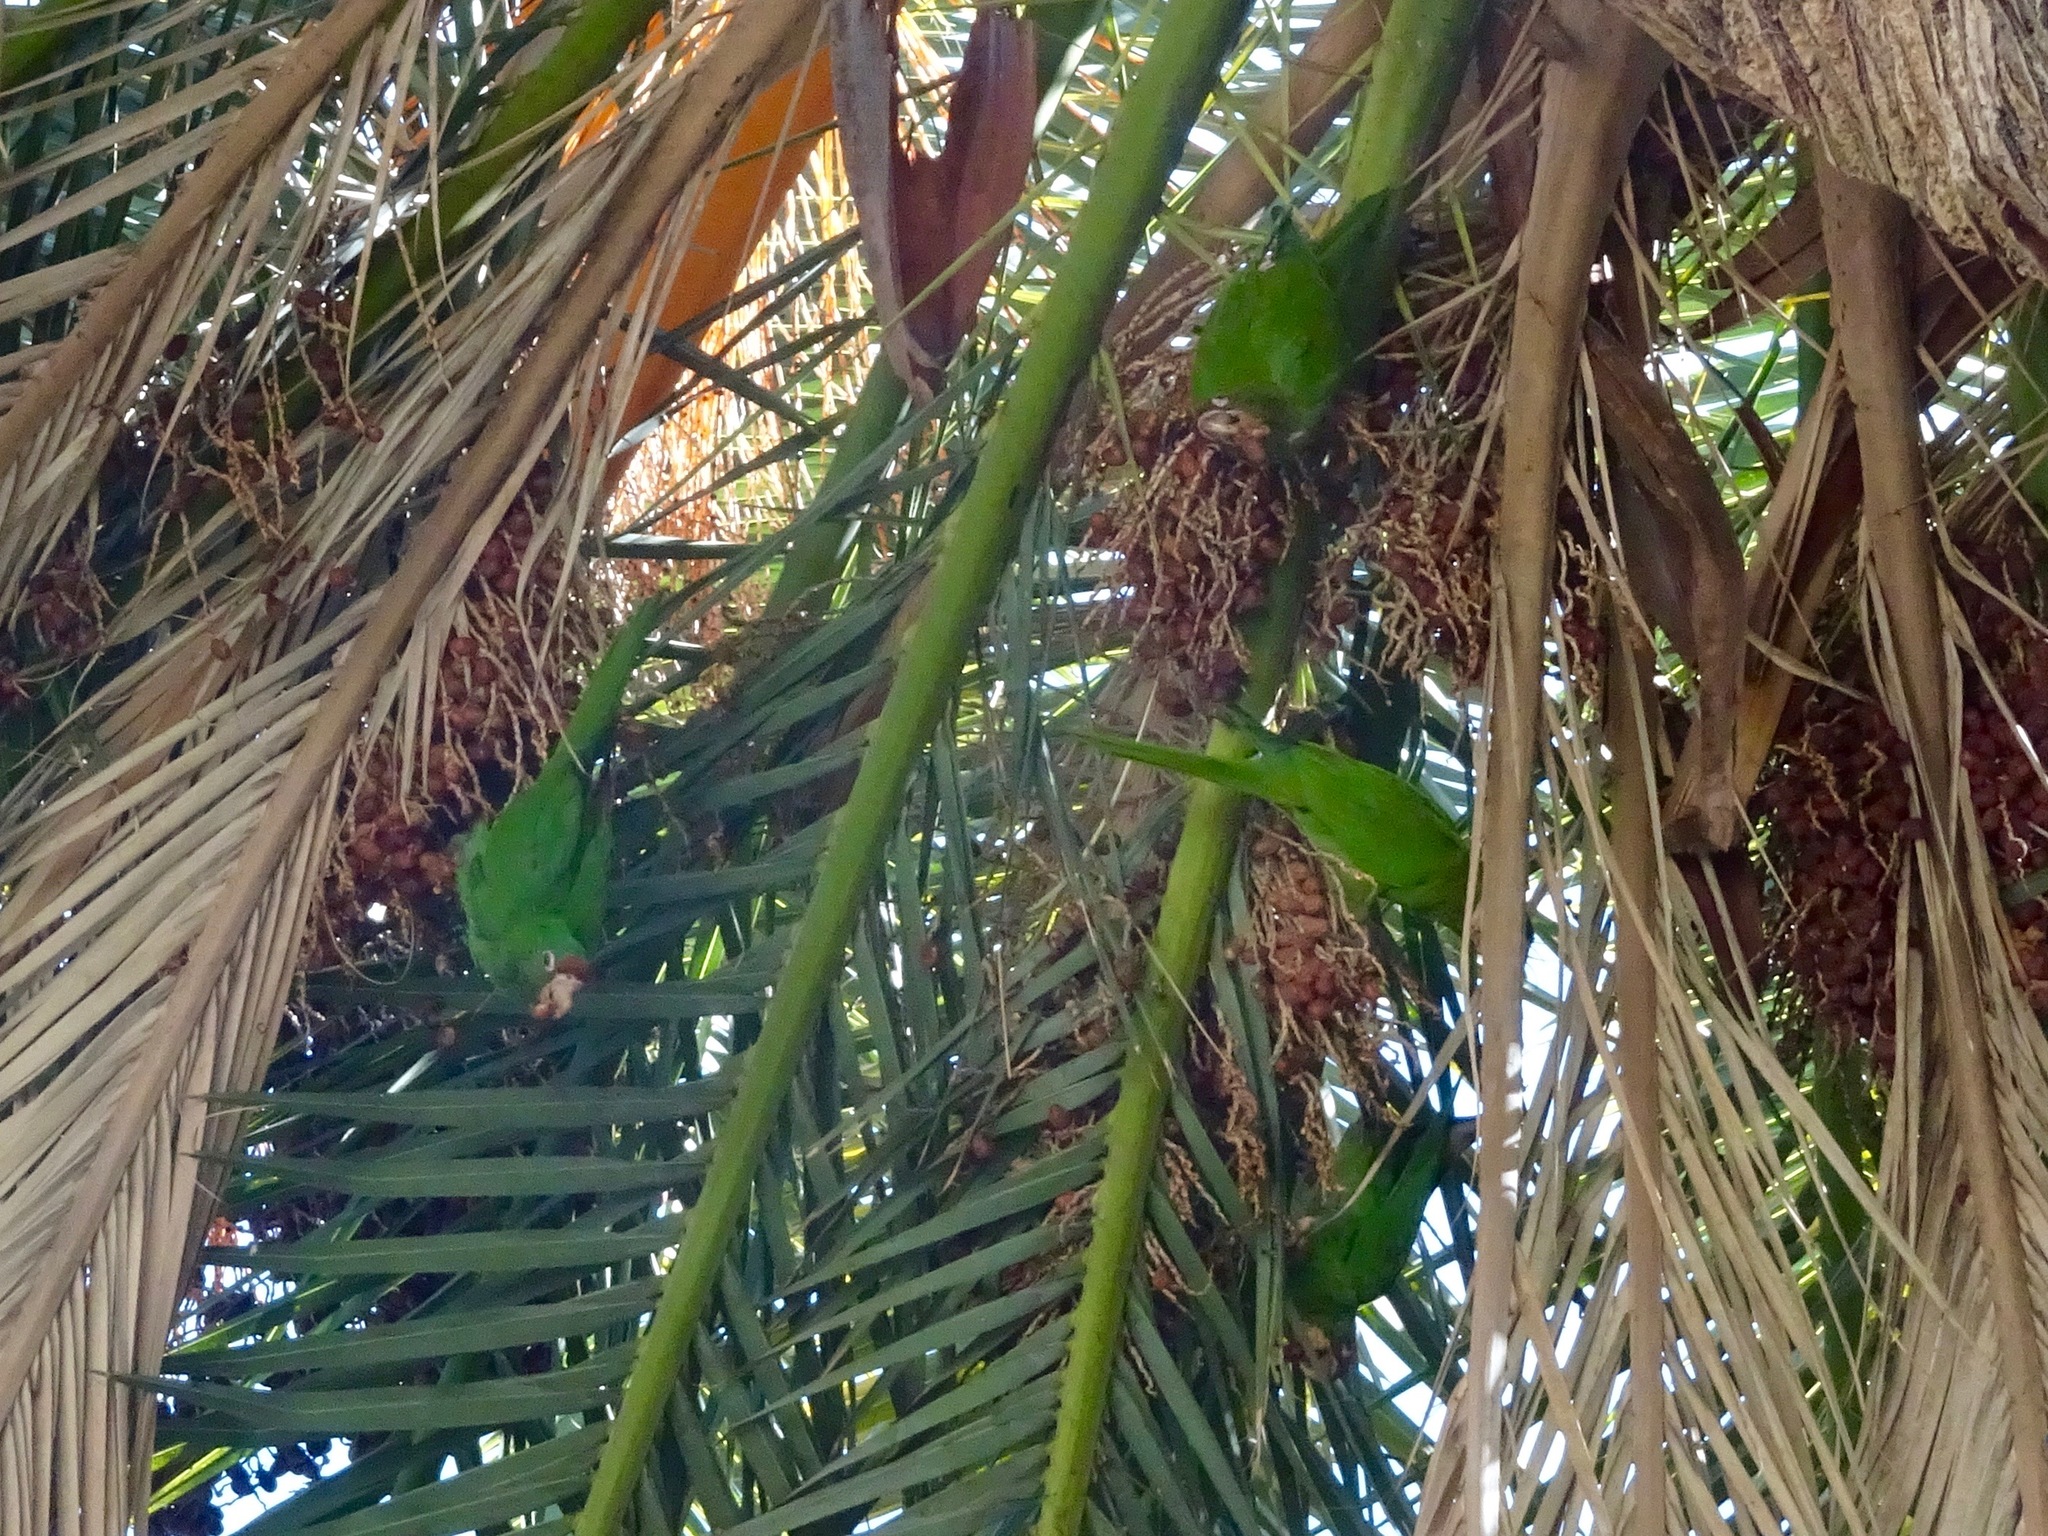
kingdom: Animalia
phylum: Chordata
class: Aves
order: Psittaciformes
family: Psittacidae
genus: Aratinga
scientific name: Aratinga mitrata
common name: Mitred parakeet
